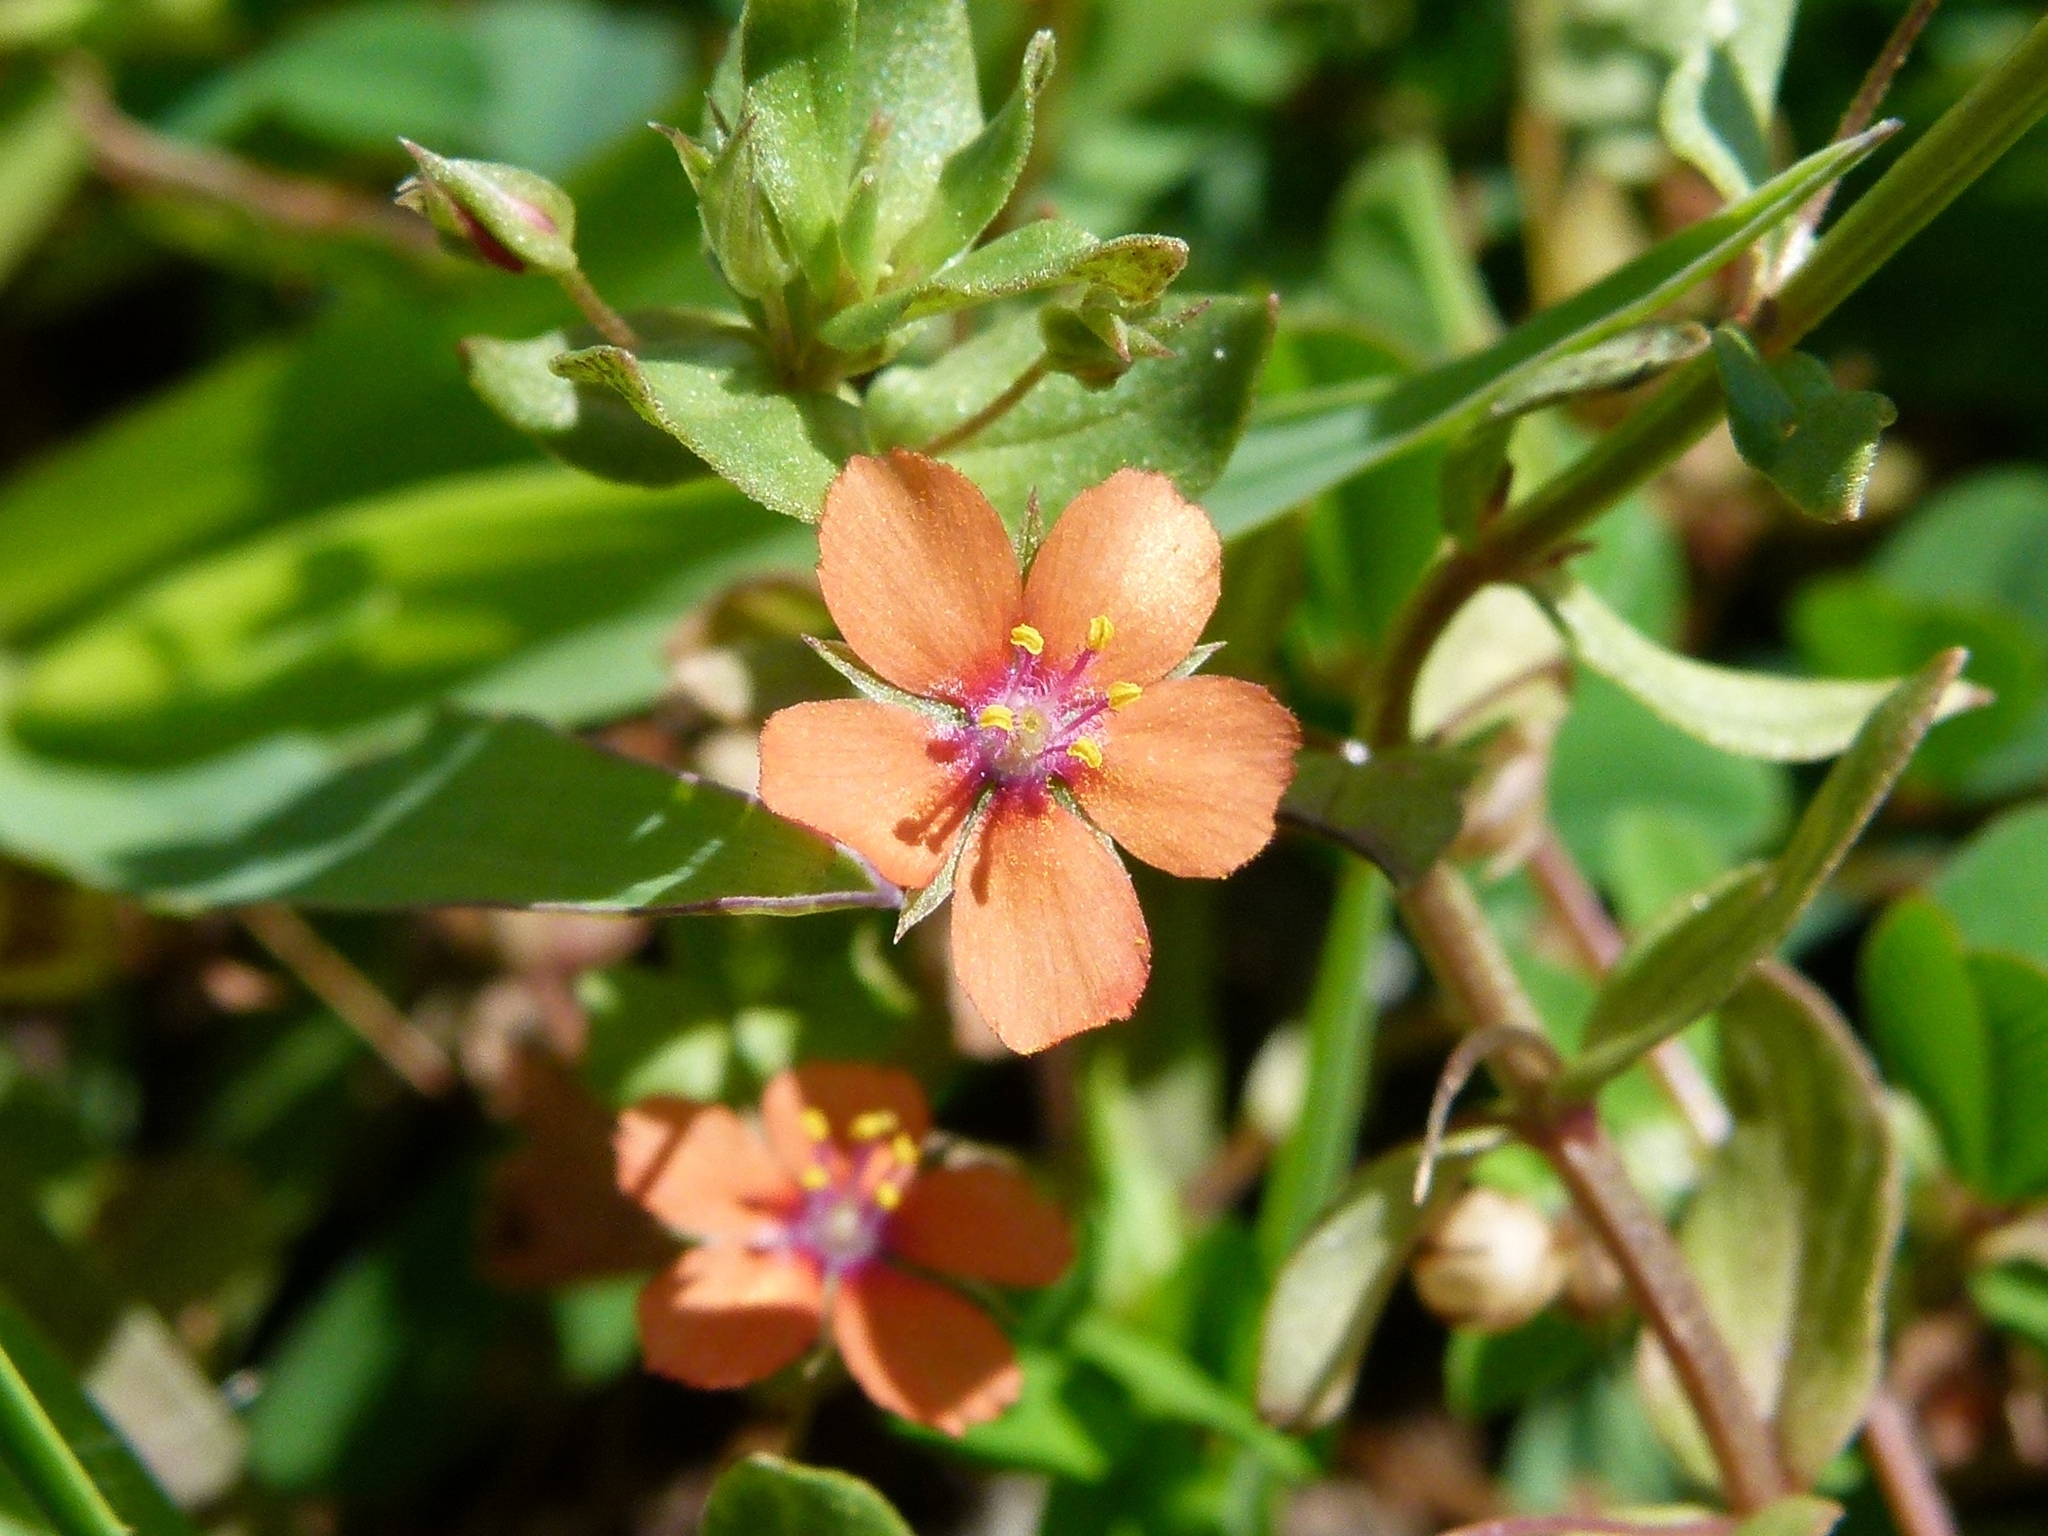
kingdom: Plantae
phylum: Tracheophyta
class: Magnoliopsida
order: Ericales
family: Primulaceae
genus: Lysimachia
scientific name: Lysimachia arvensis
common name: Scarlet pimpernel
